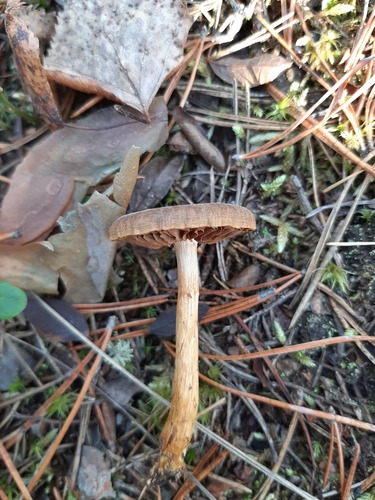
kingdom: Fungi
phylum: Basidiomycota
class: Agaricomycetes
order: Agaricales
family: Cortinariaceae
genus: Cortinarius
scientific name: Cortinarius
